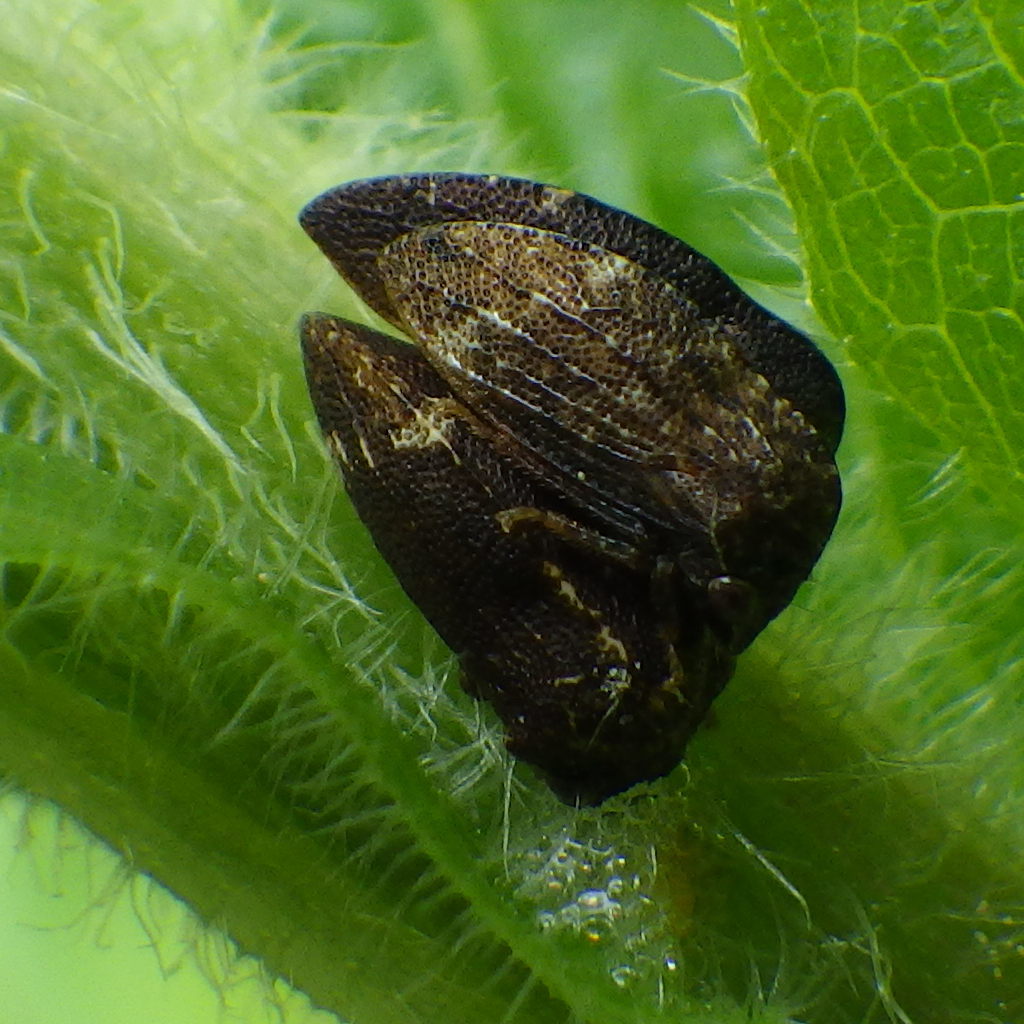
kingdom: Animalia
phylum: Arthropoda
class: Insecta
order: Hemiptera
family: Membracidae
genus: Publilia
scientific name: Publilia concava
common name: Aster treehopper
